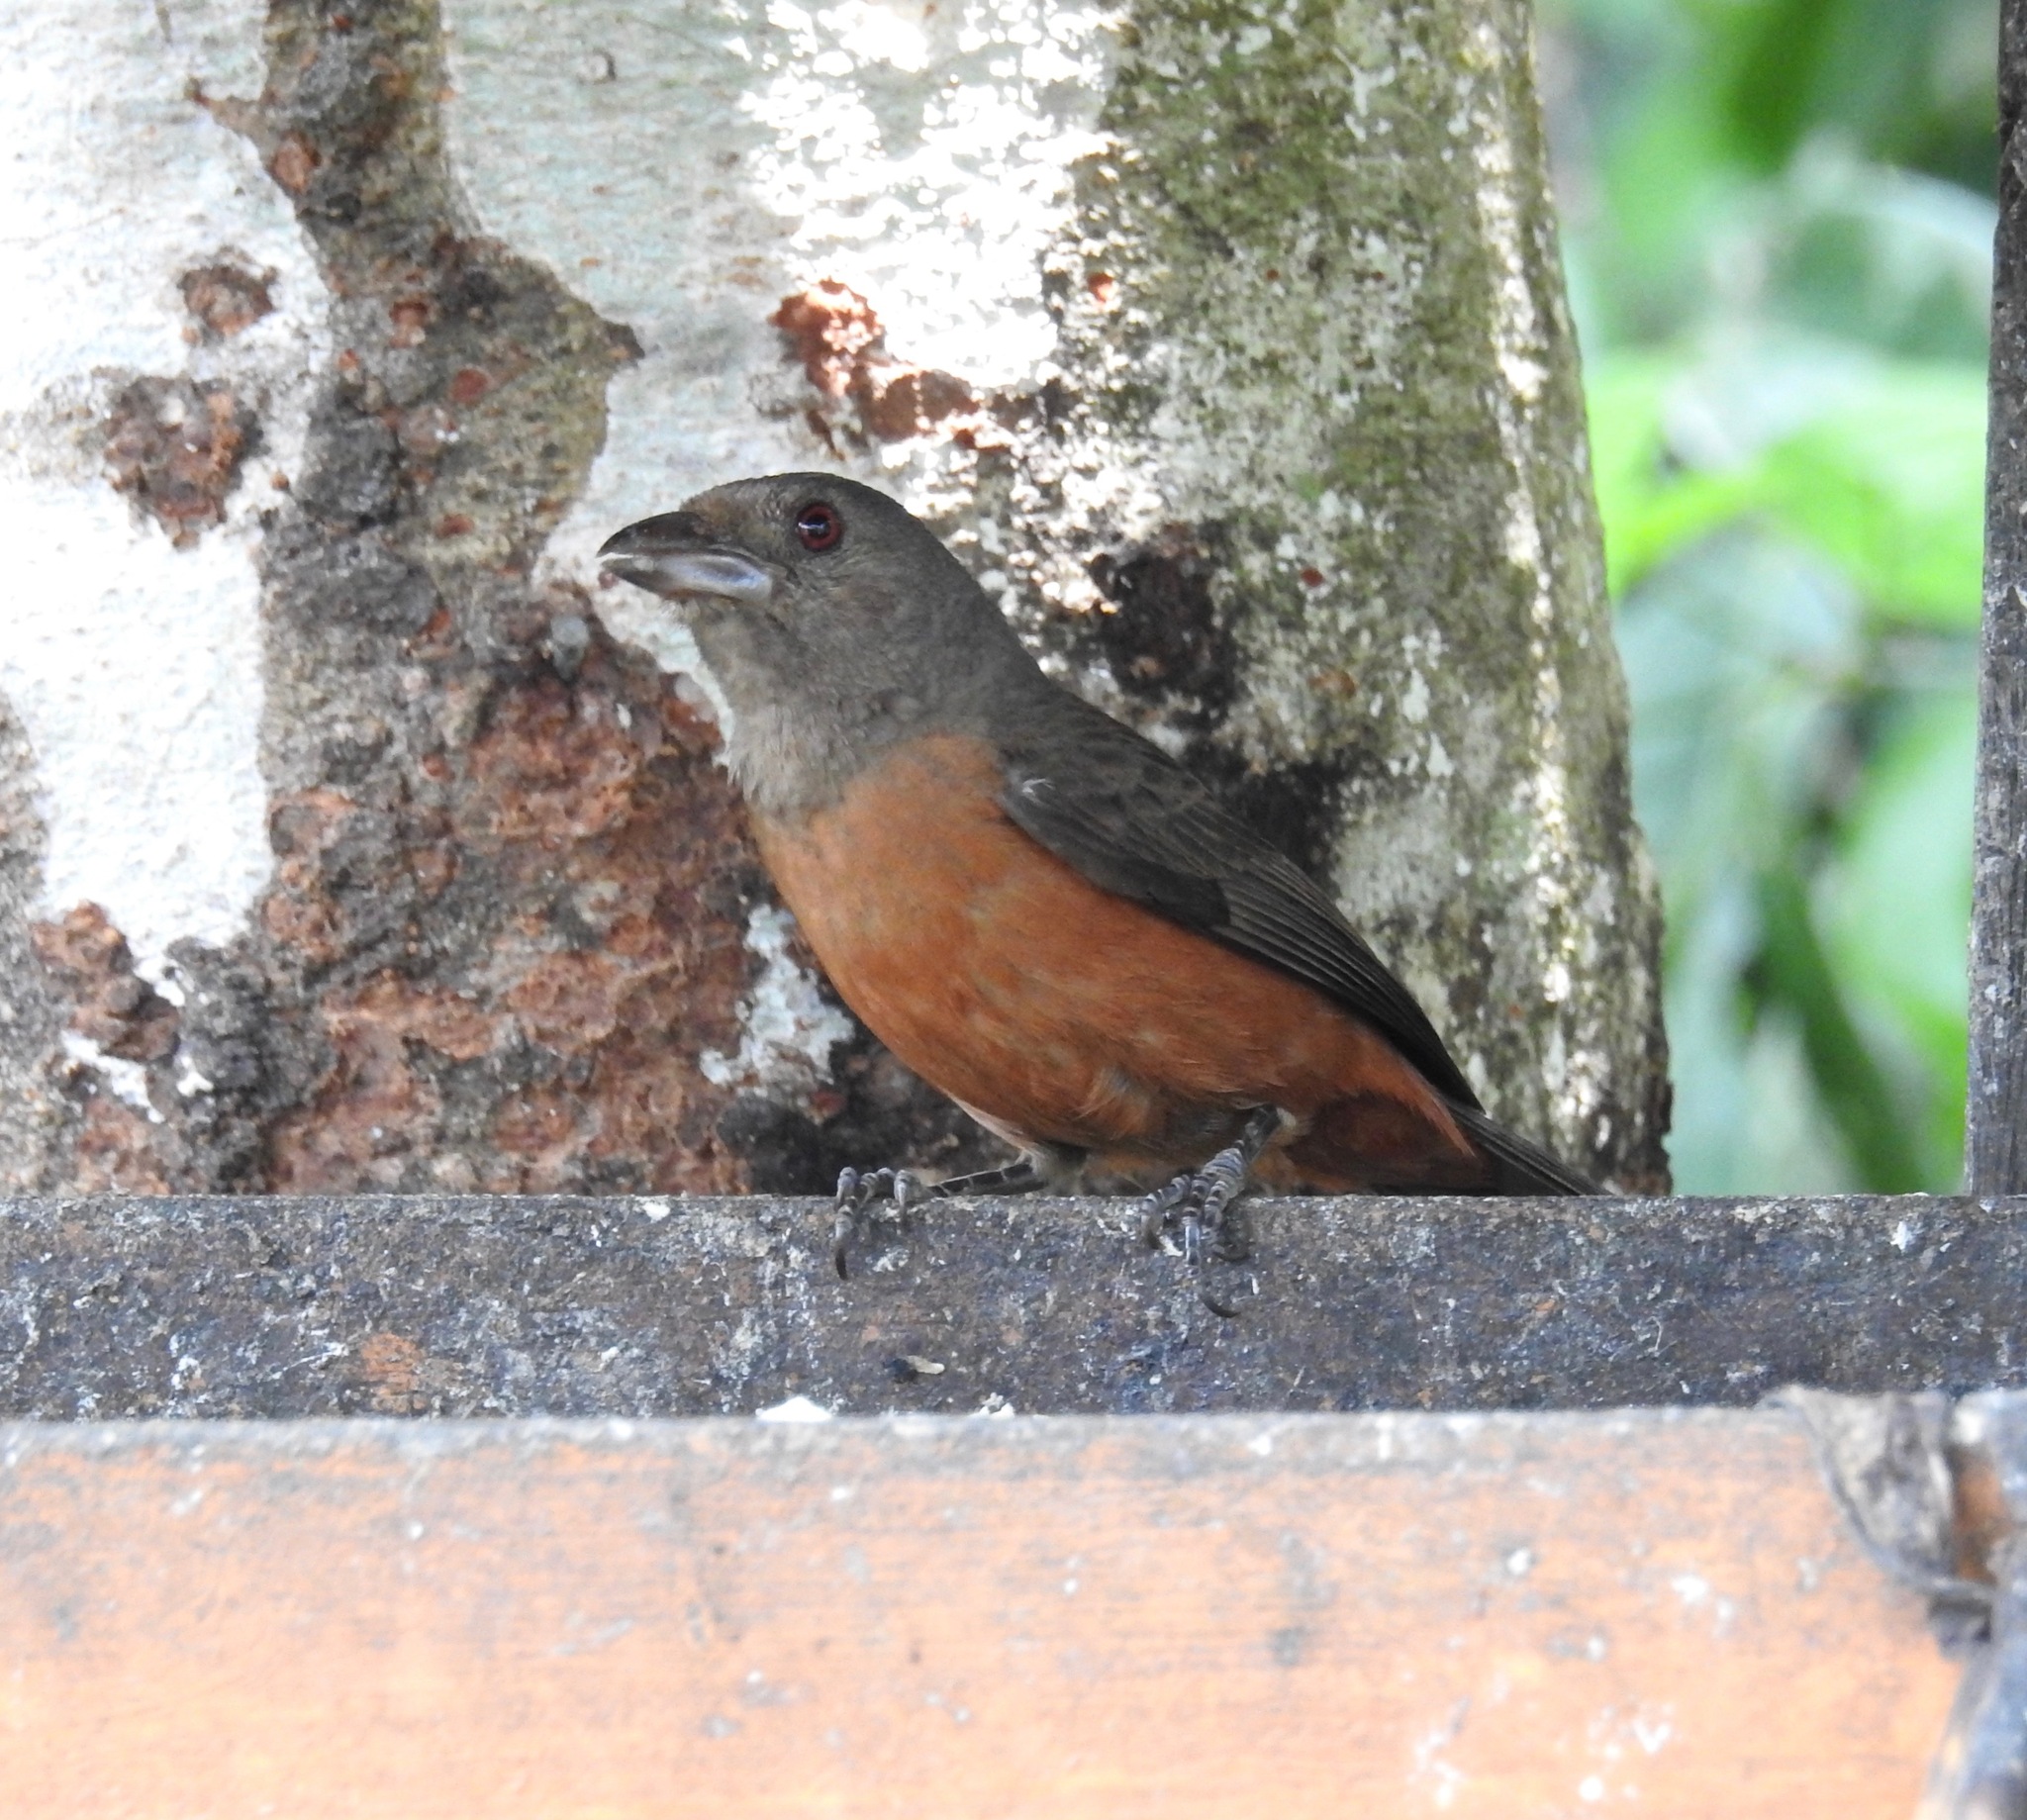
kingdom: Animalia
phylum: Chordata
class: Aves
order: Passeriformes
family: Thraupidae
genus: Ramphocelus
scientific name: Ramphocelus bresilia
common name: Brazilian tanager
